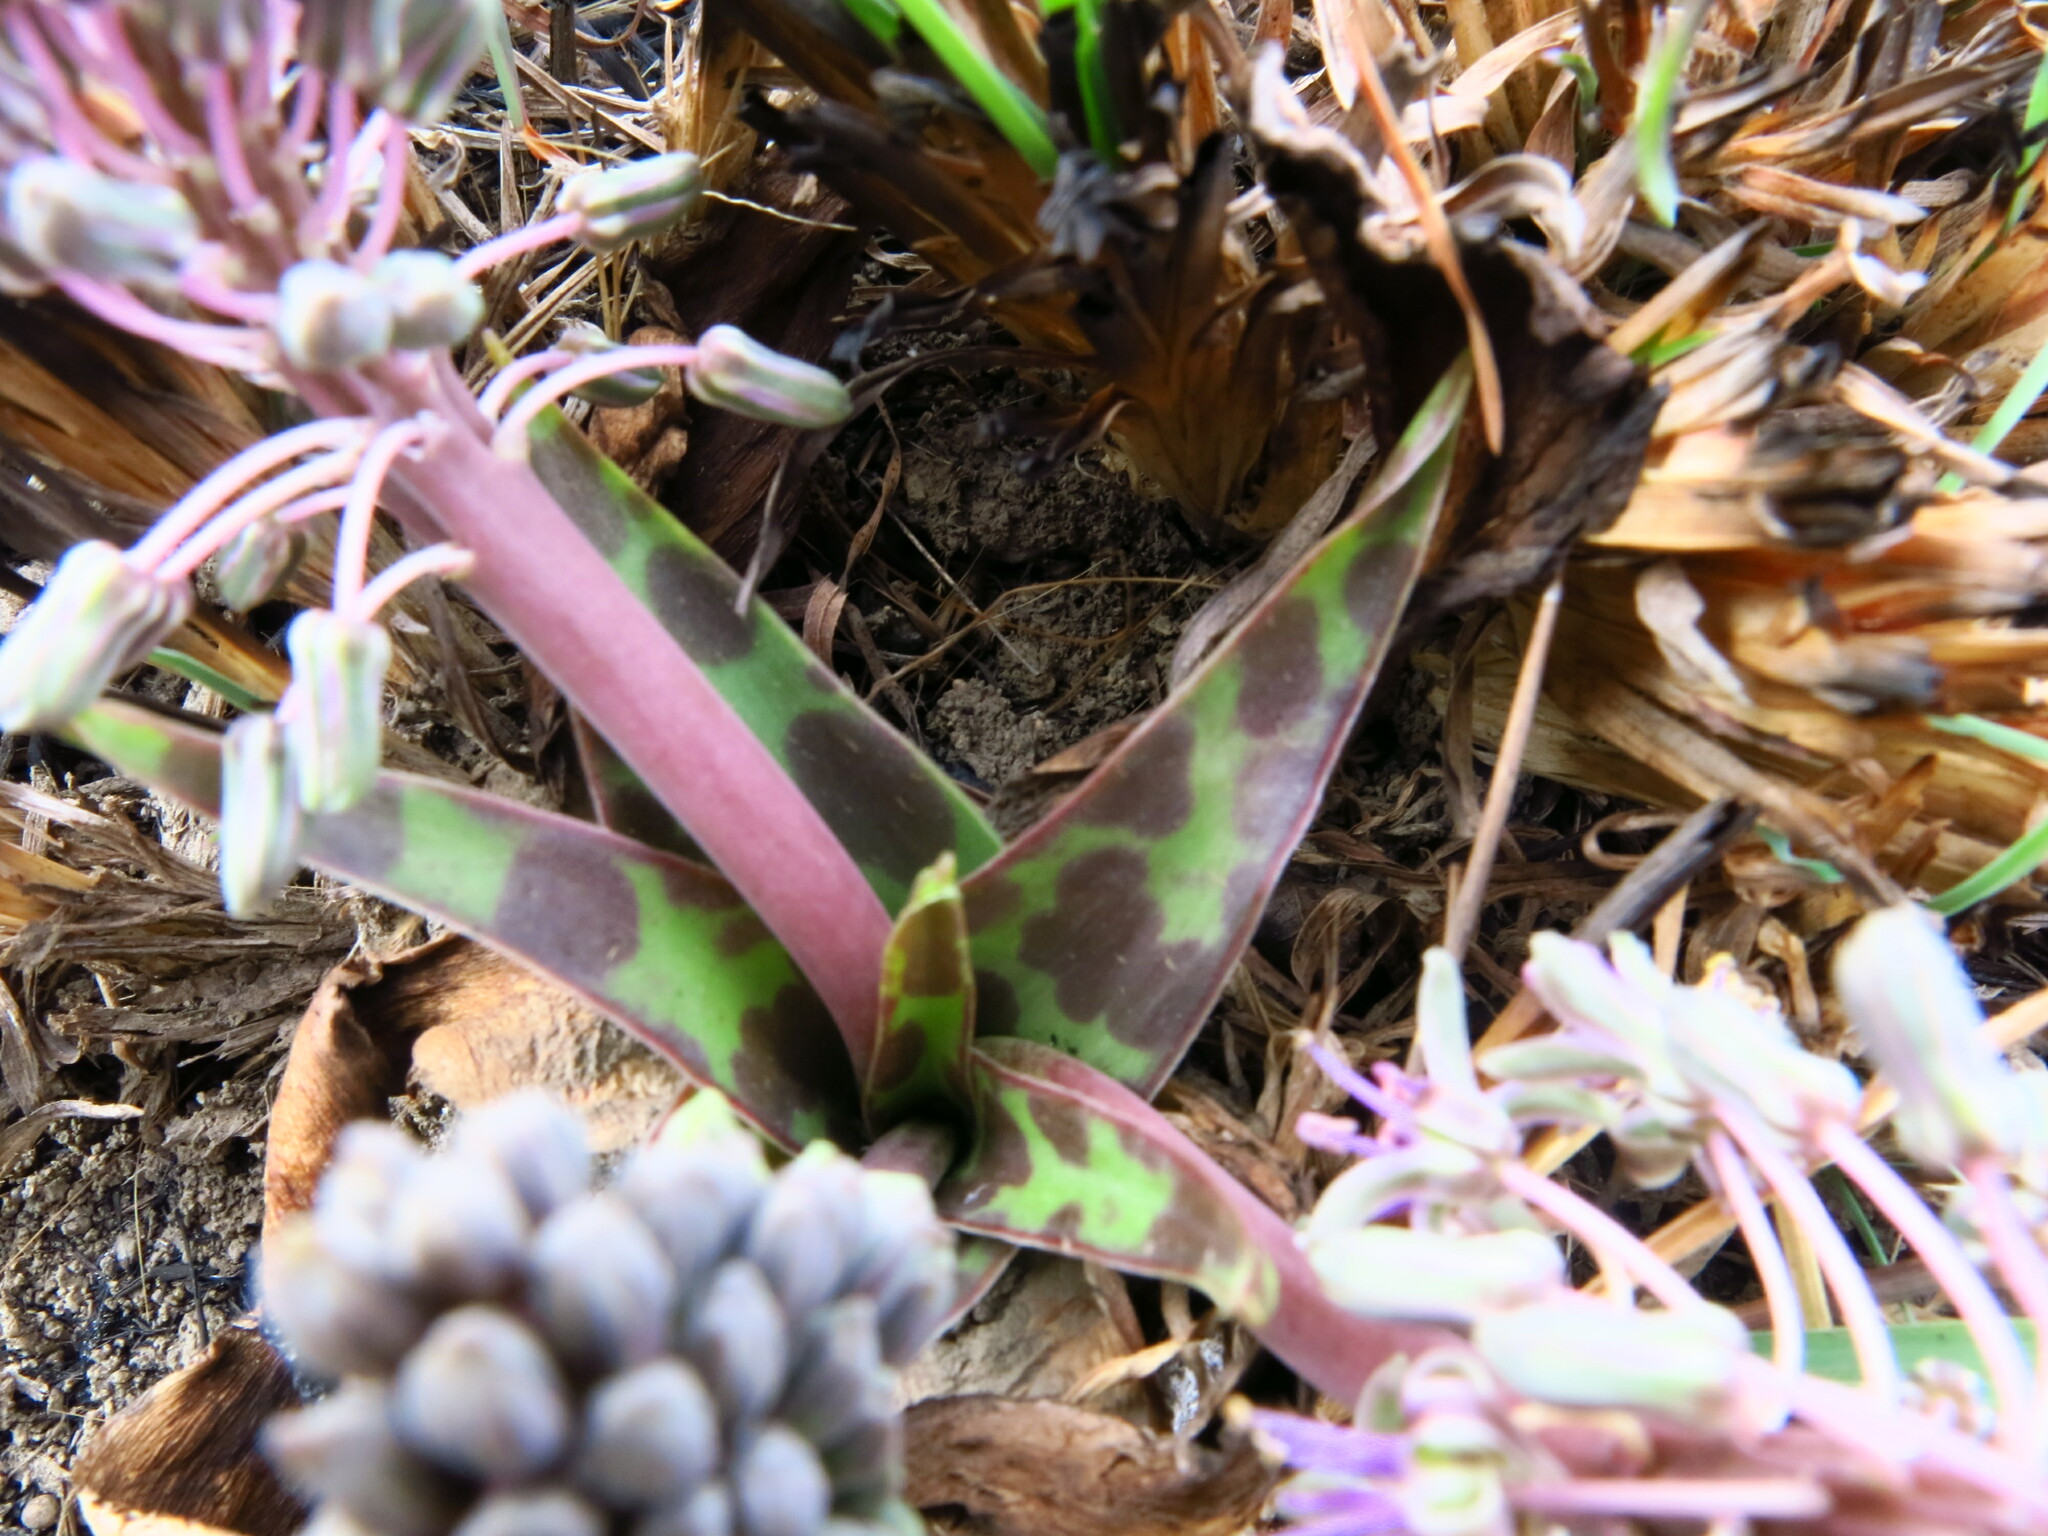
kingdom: Plantae
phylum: Tracheophyta
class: Liliopsida
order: Asparagales
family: Asparagaceae
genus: Ledebouria
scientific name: Ledebouria luteola
